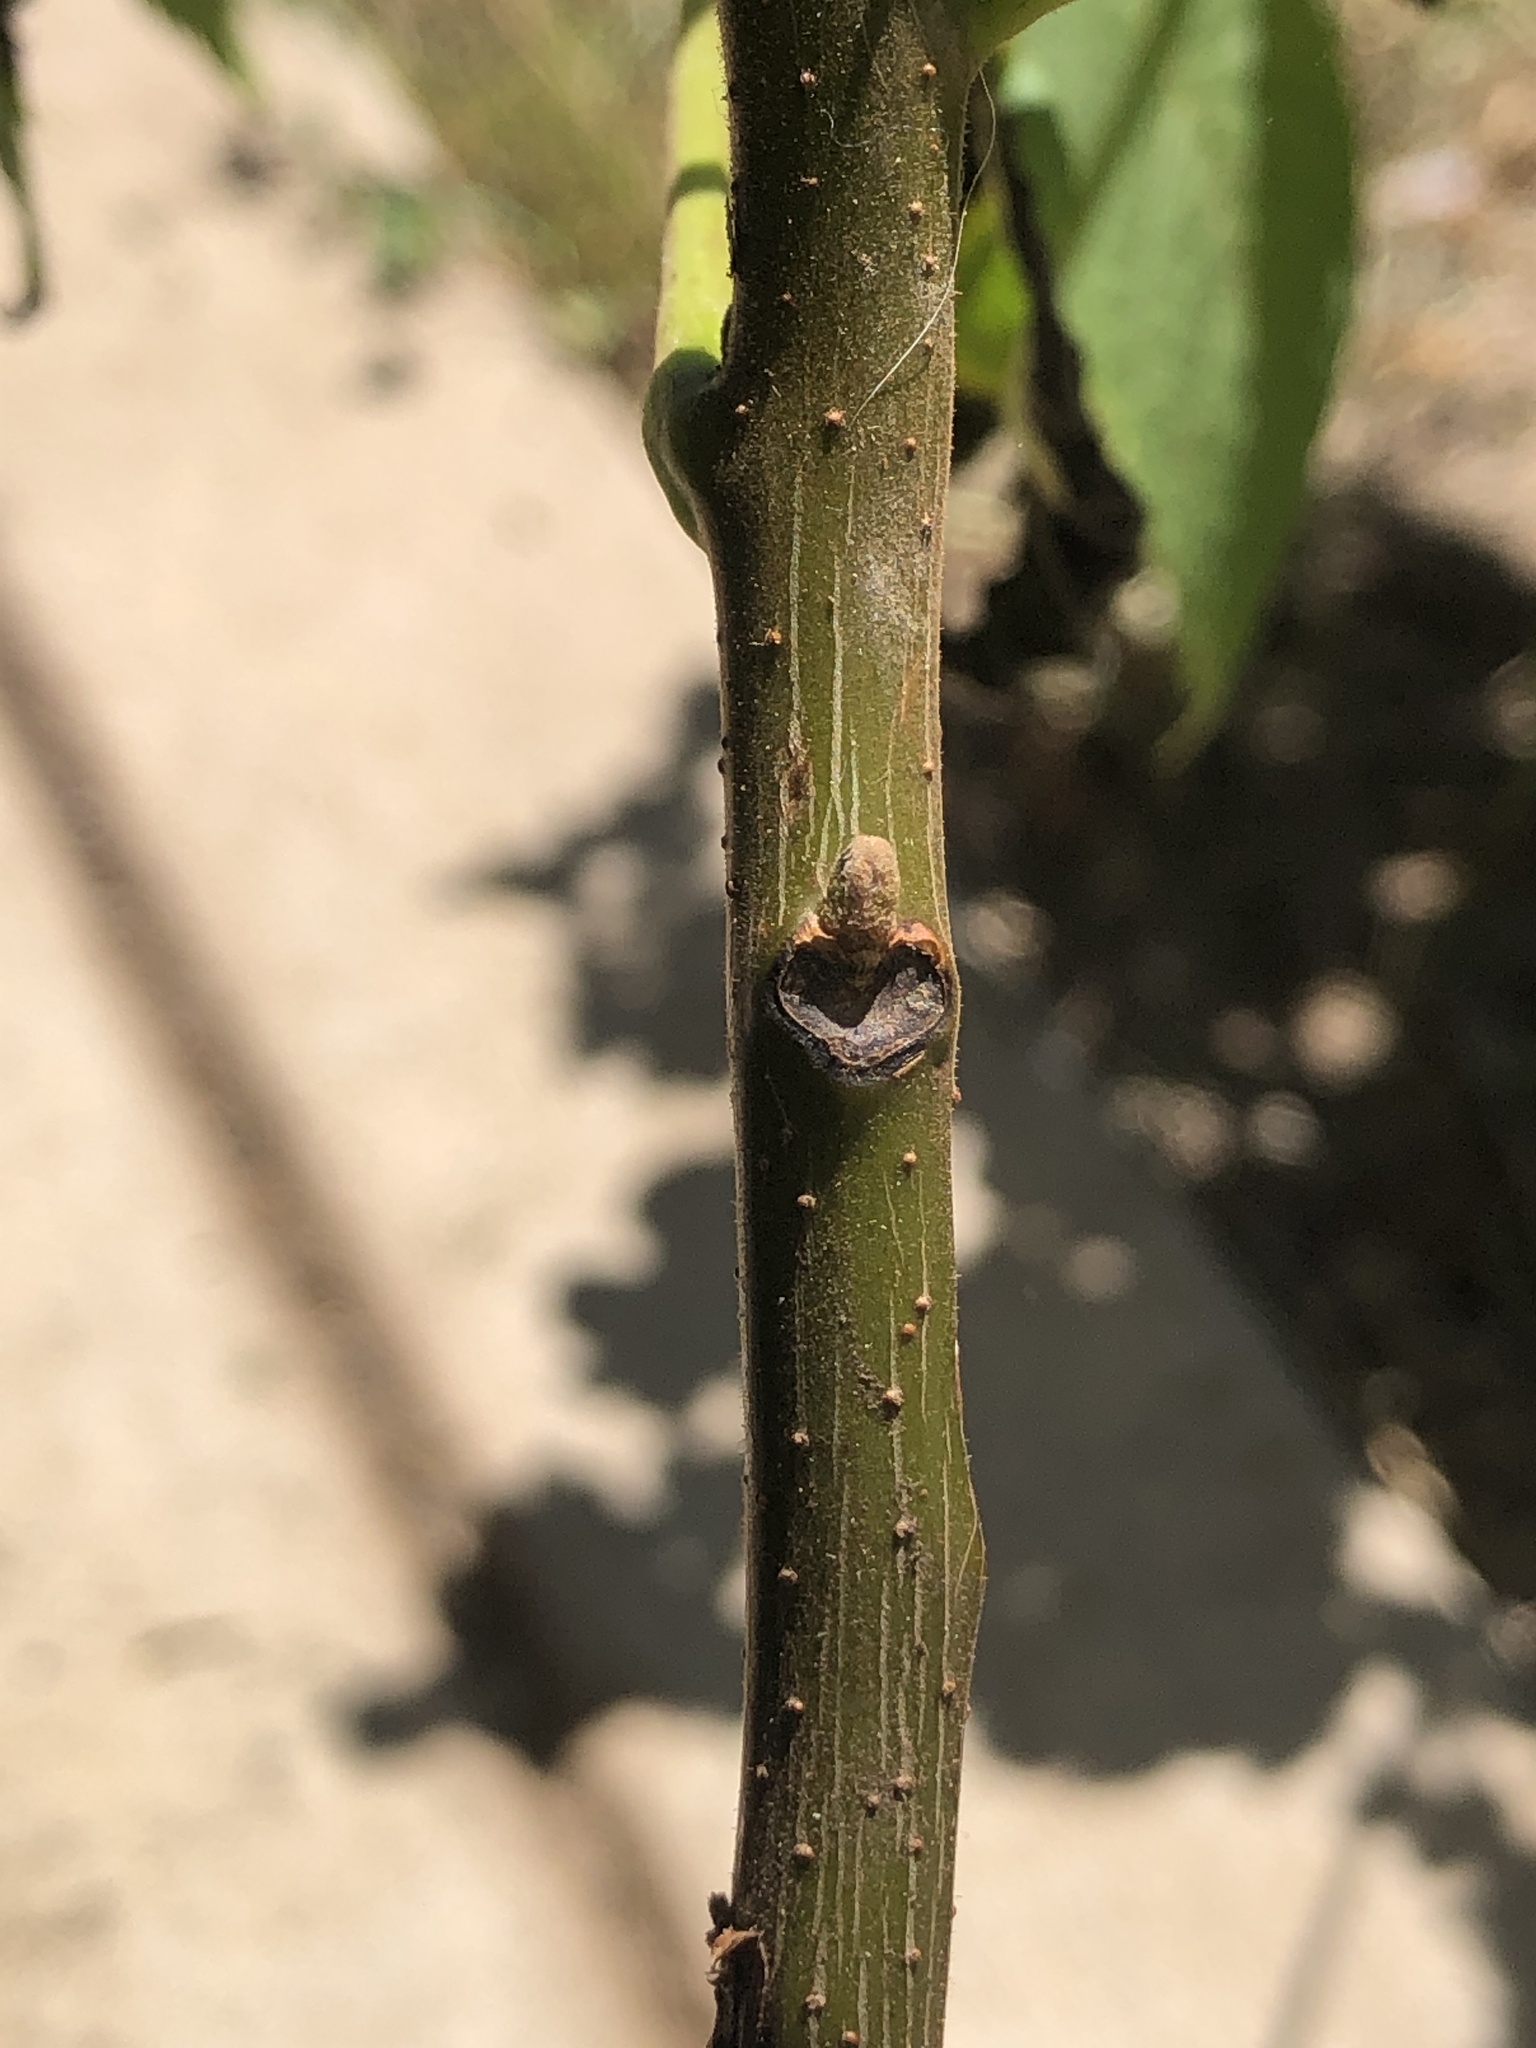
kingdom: Plantae
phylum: Tracheophyta
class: Magnoliopsida
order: Fagales
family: Juglandaceae
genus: Juglans
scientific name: Juglans nigra
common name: Black walnut
